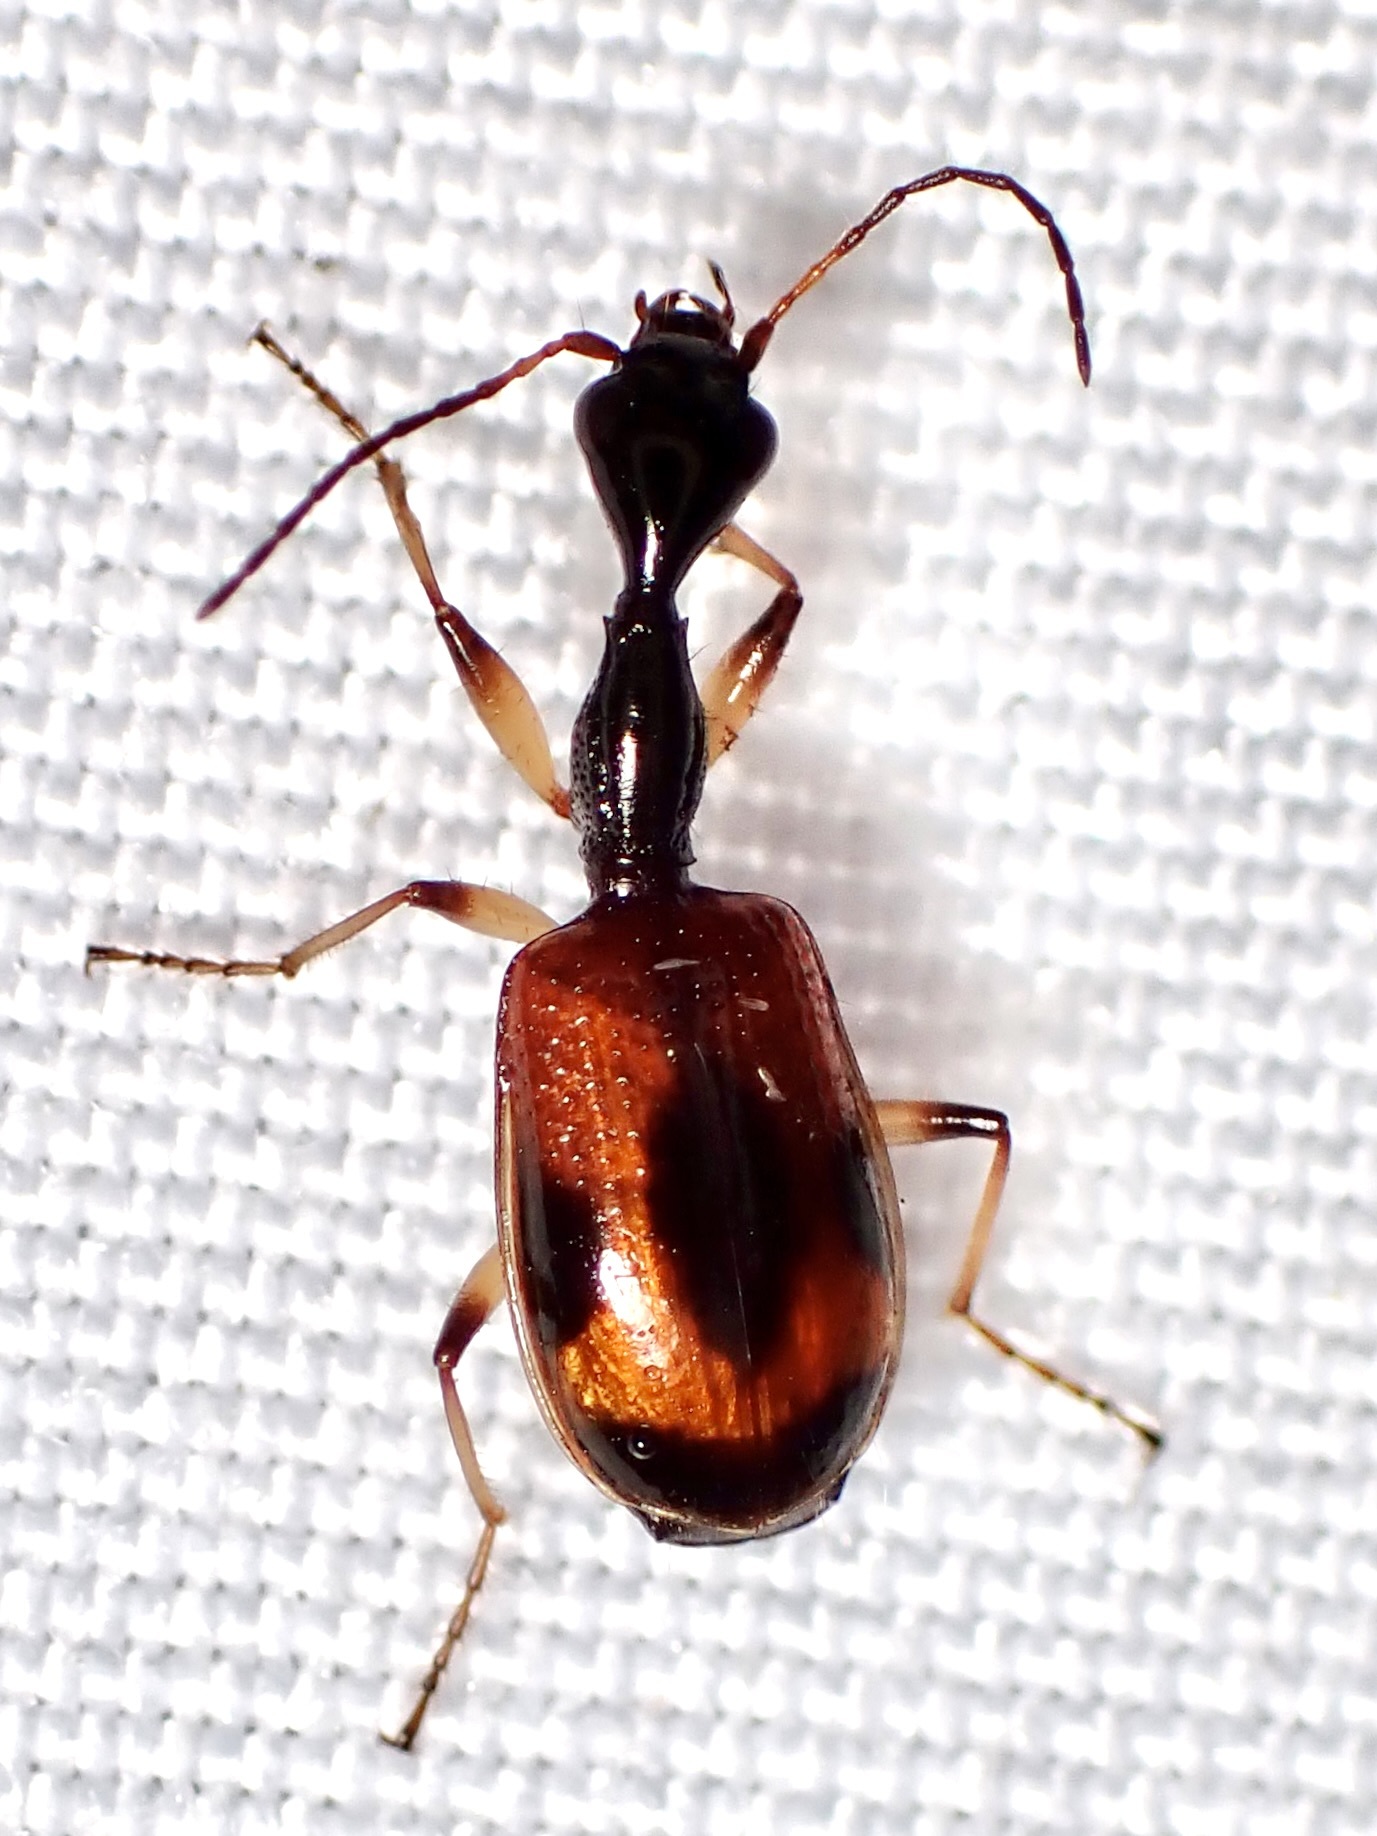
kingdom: Animalia
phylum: Arthropoda
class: Insecta
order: Coleoptera
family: Carabidae
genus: Colliuris
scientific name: Colliuris pensylvanica
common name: Long-necked ground beetle
